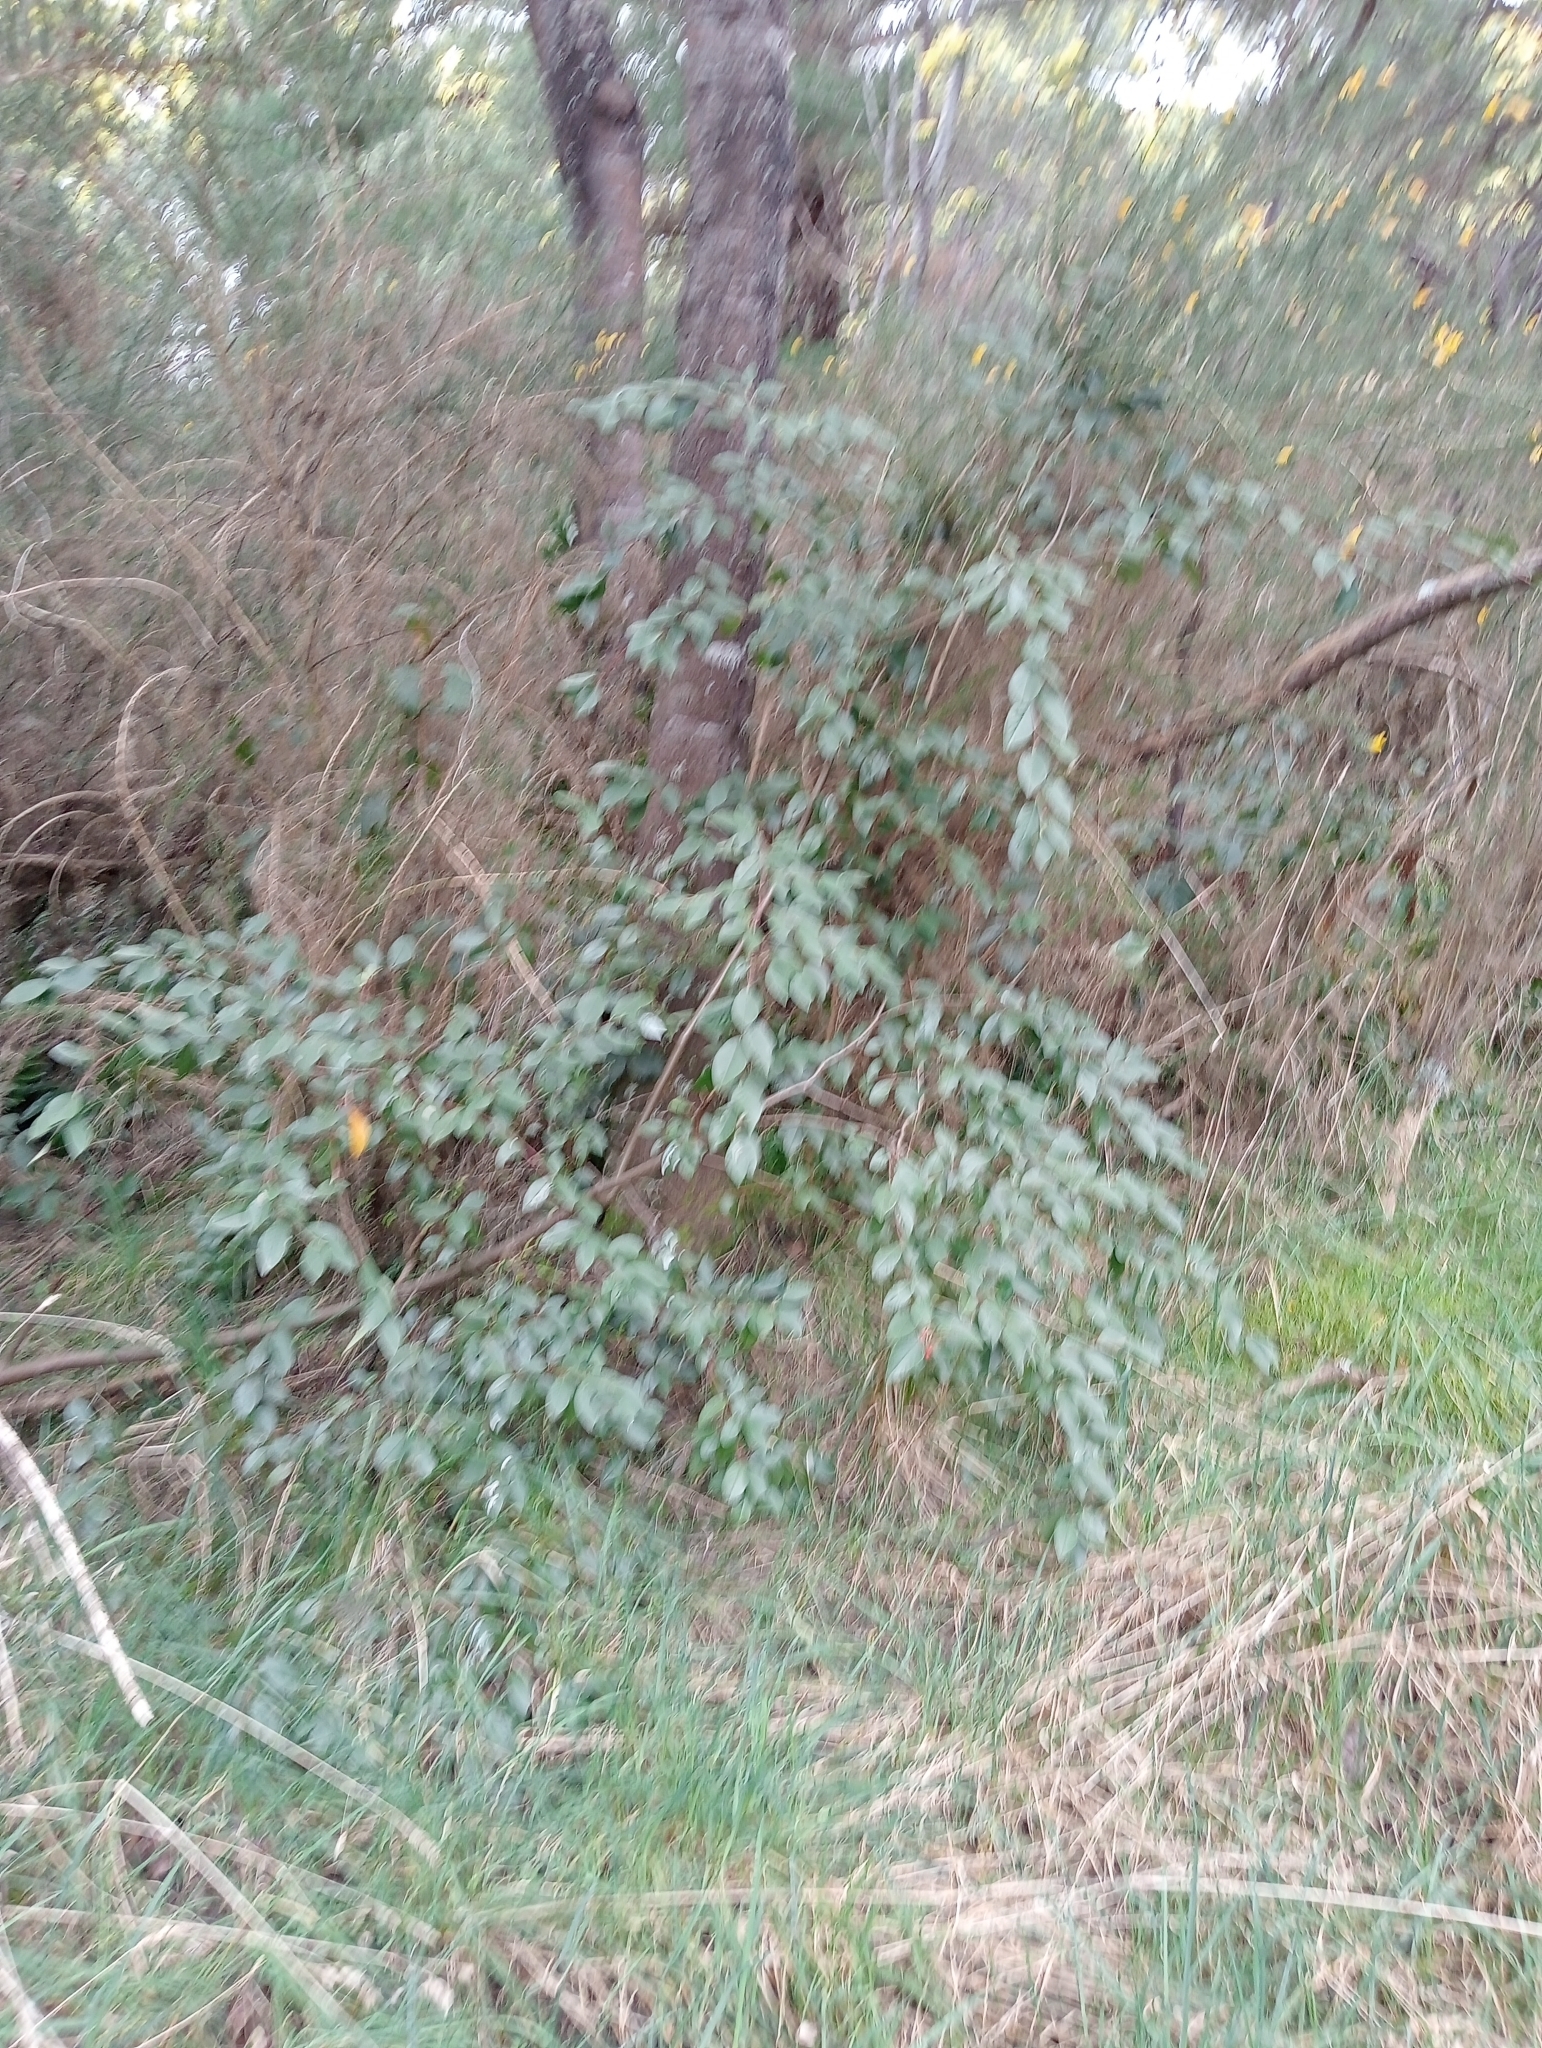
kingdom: Plantae
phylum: Tracheophyta
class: Magnoliopsida
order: Rosales
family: Rosaceae
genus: Cotoneaster
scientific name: Cotoneaster glaucophyllus
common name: Glaucous cotoneaster
